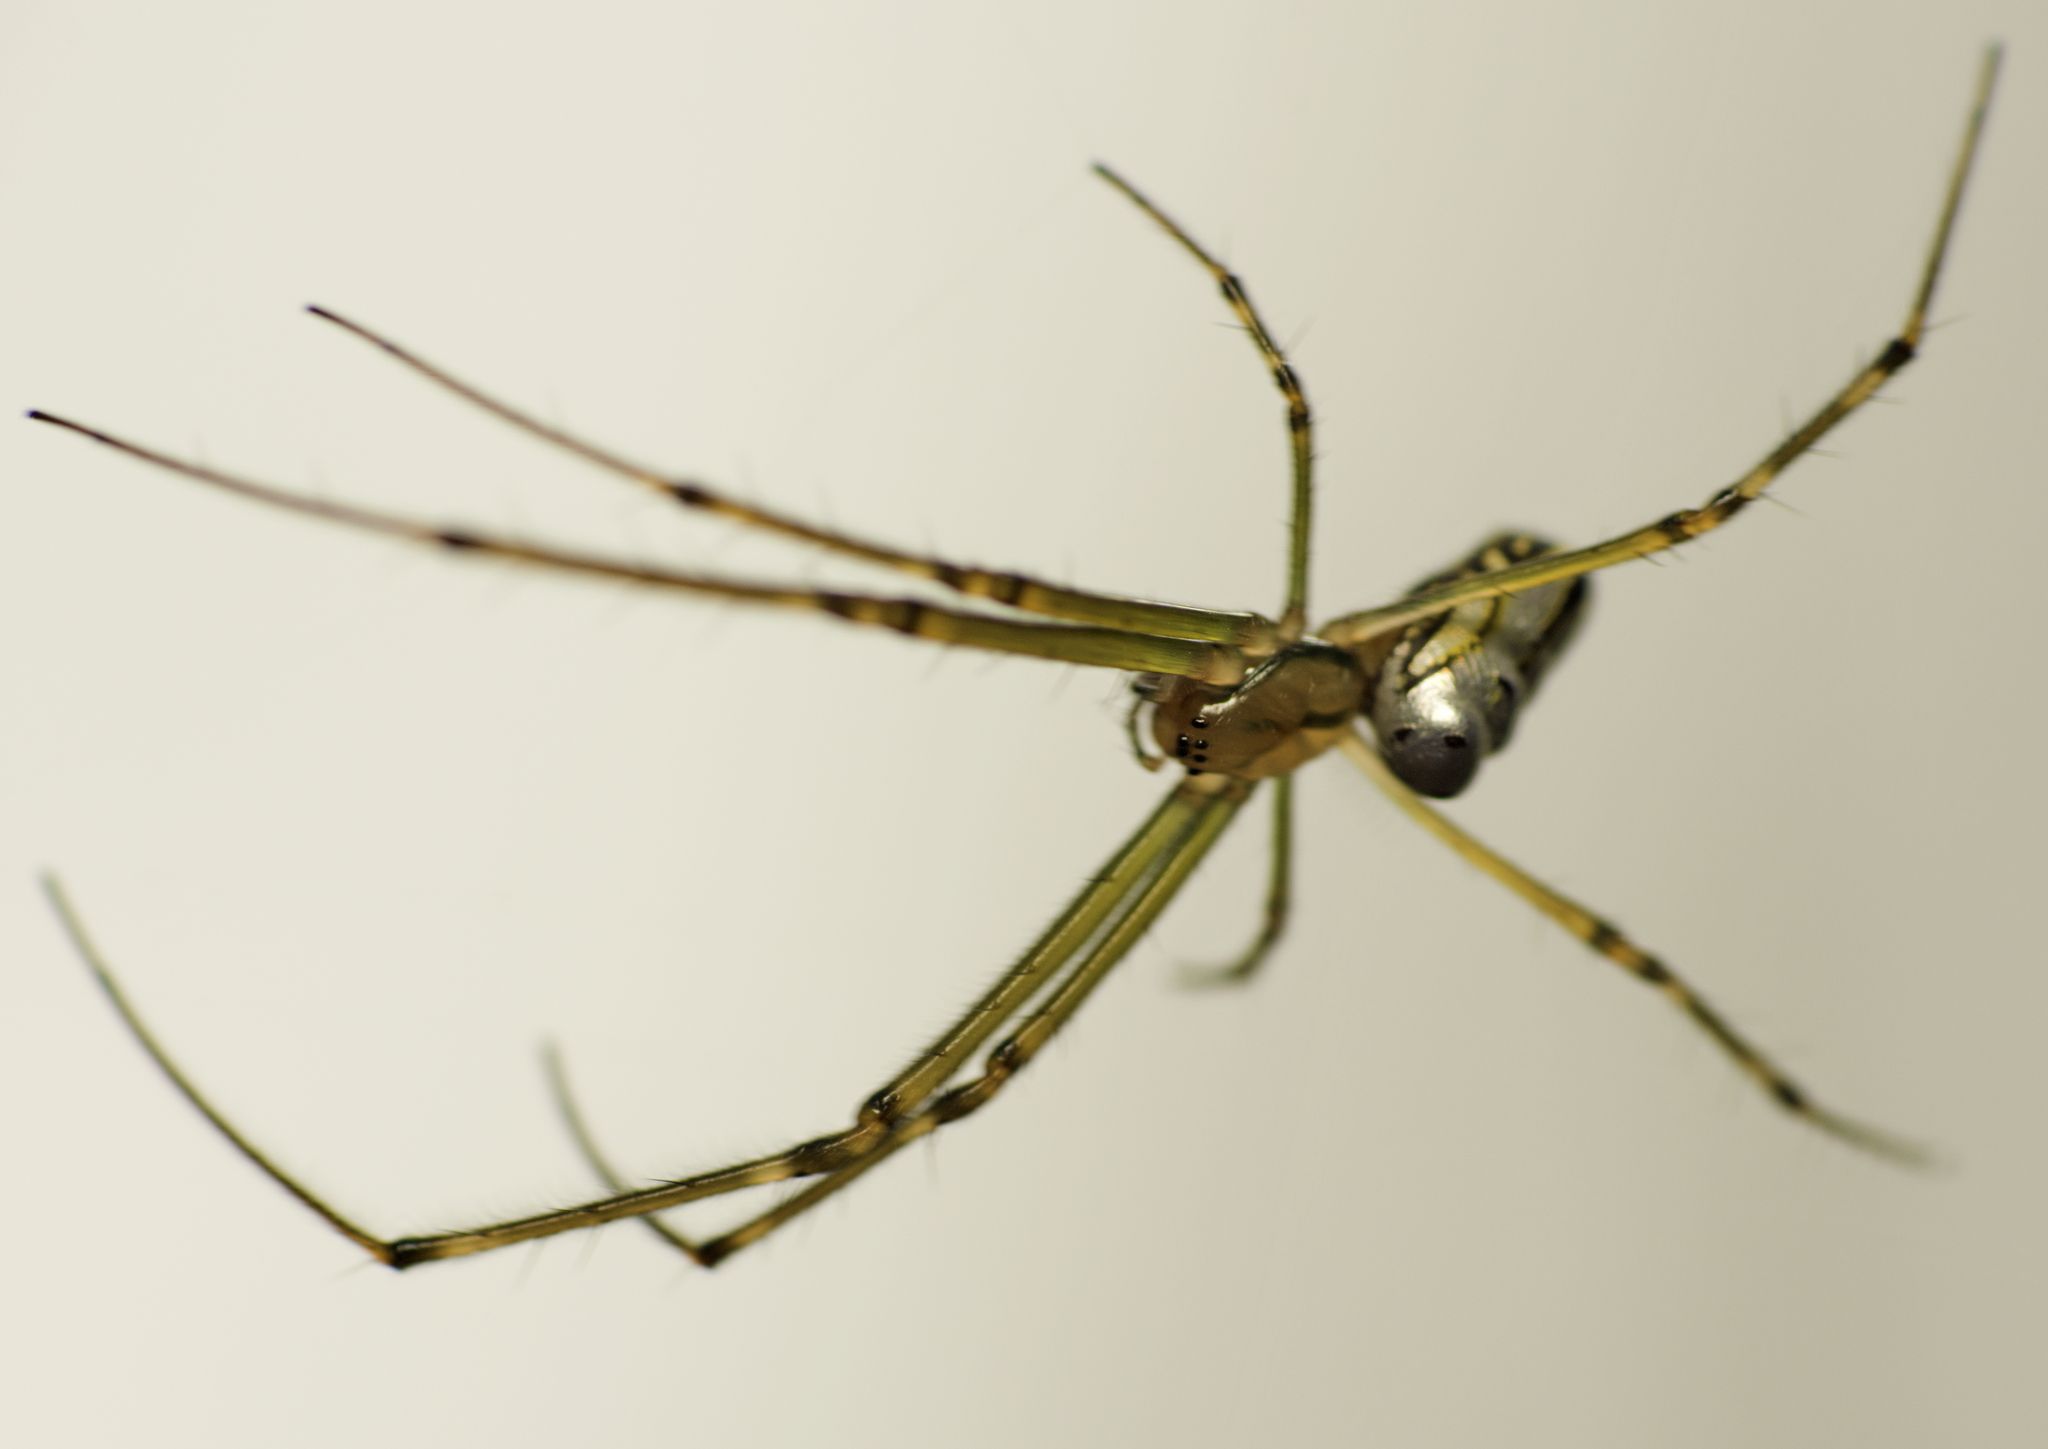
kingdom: Animalia
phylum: Arthropoda
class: Arachnida
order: Araneae
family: Tetragnathidae
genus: Leucauge
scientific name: Leucauge dromedaria
